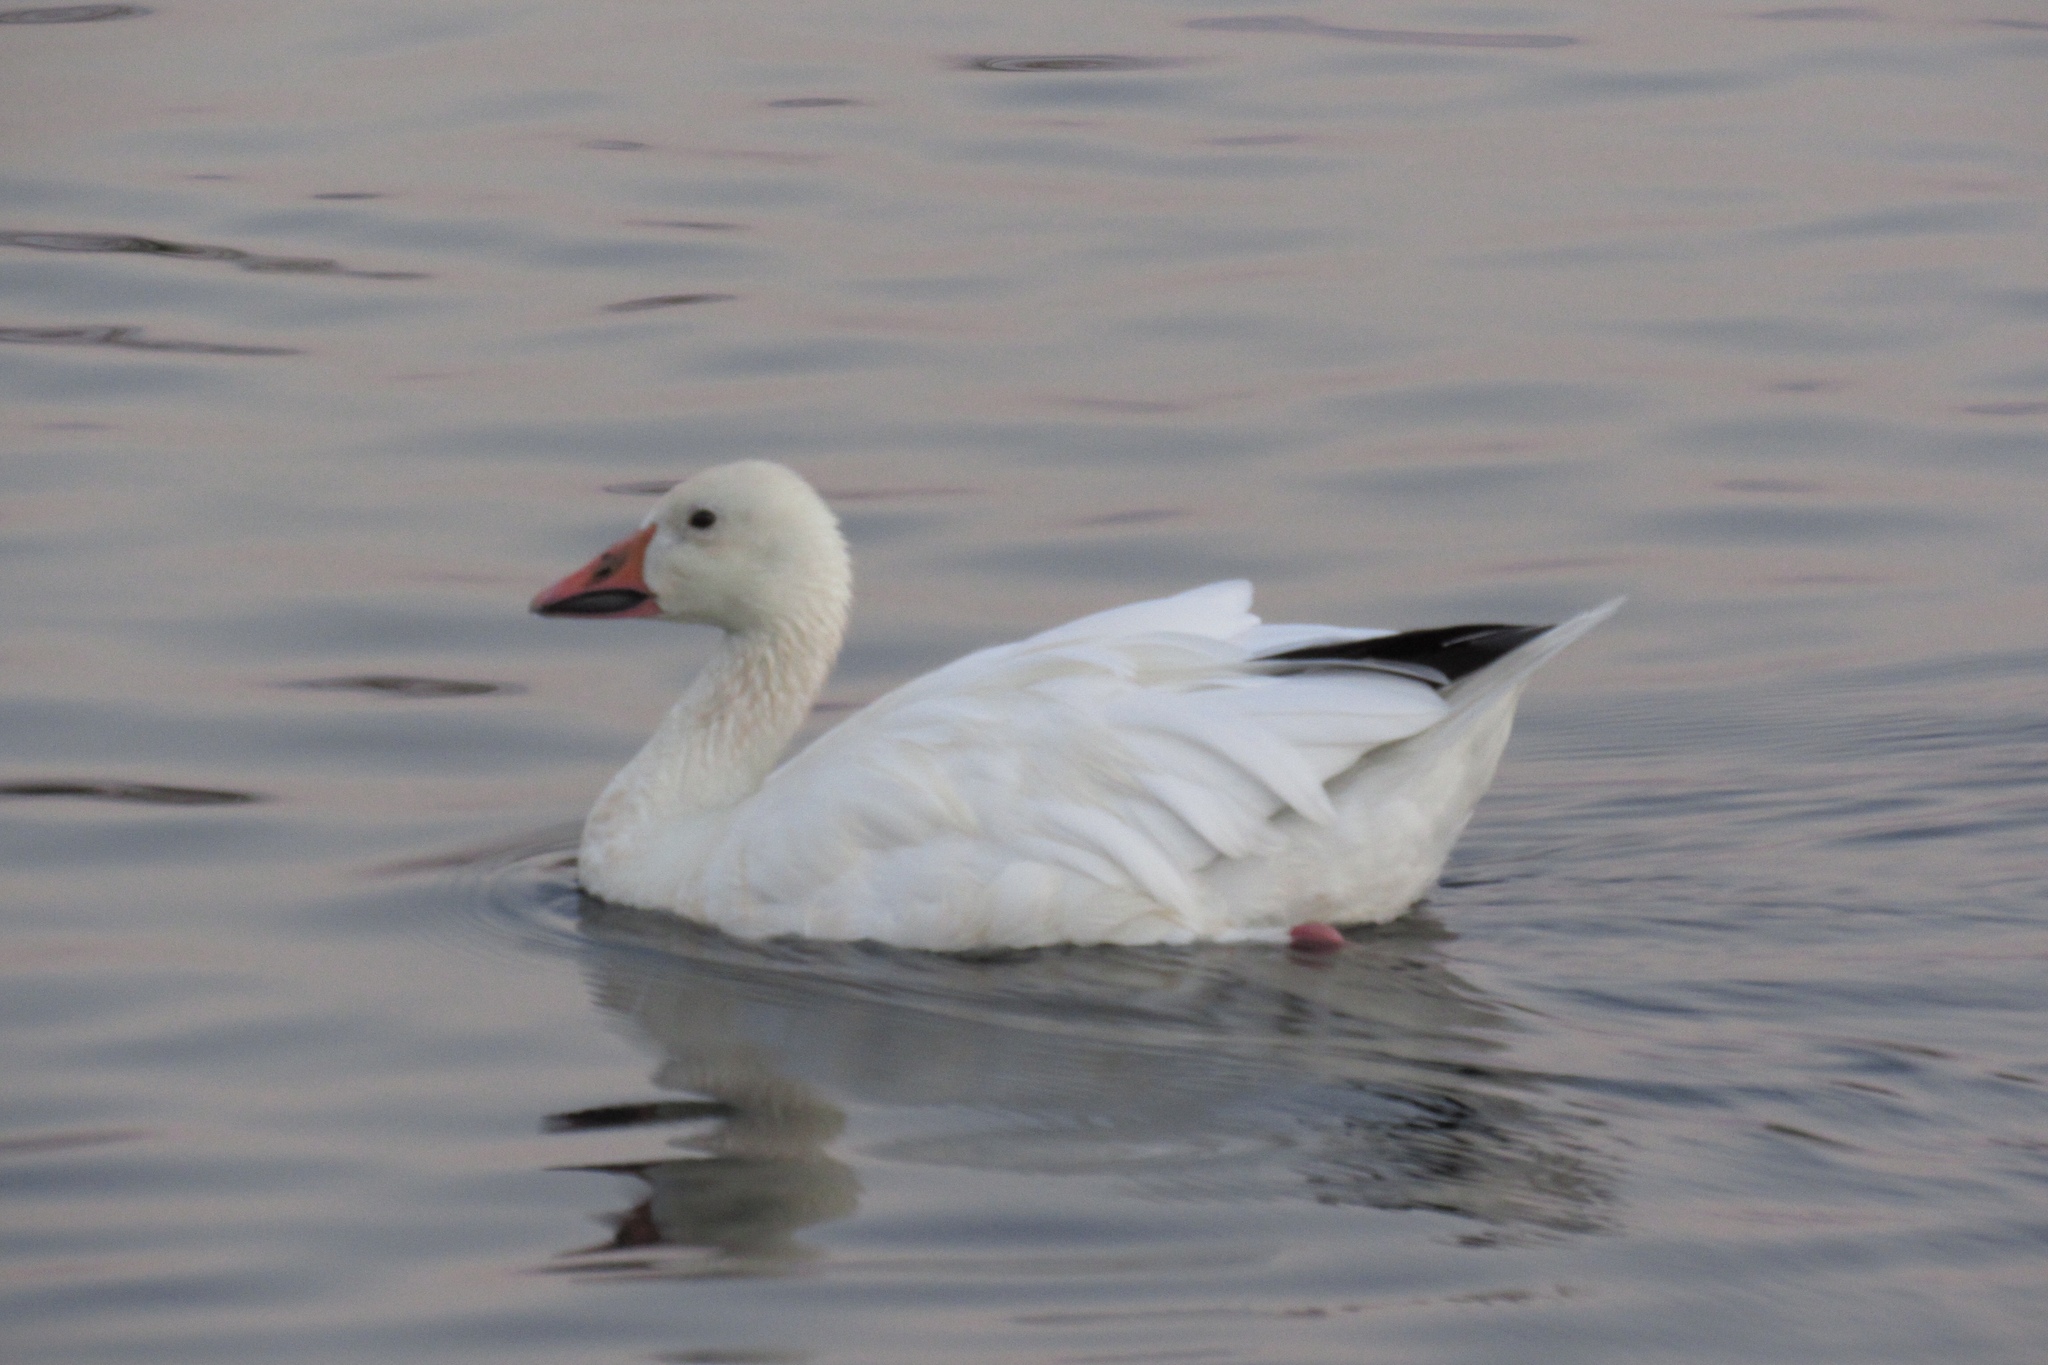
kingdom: Animalia
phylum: Chordata
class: Aves
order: Anseriformes
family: Anatidae
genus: Anser
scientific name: Anser caerulescens
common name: Snow goose
